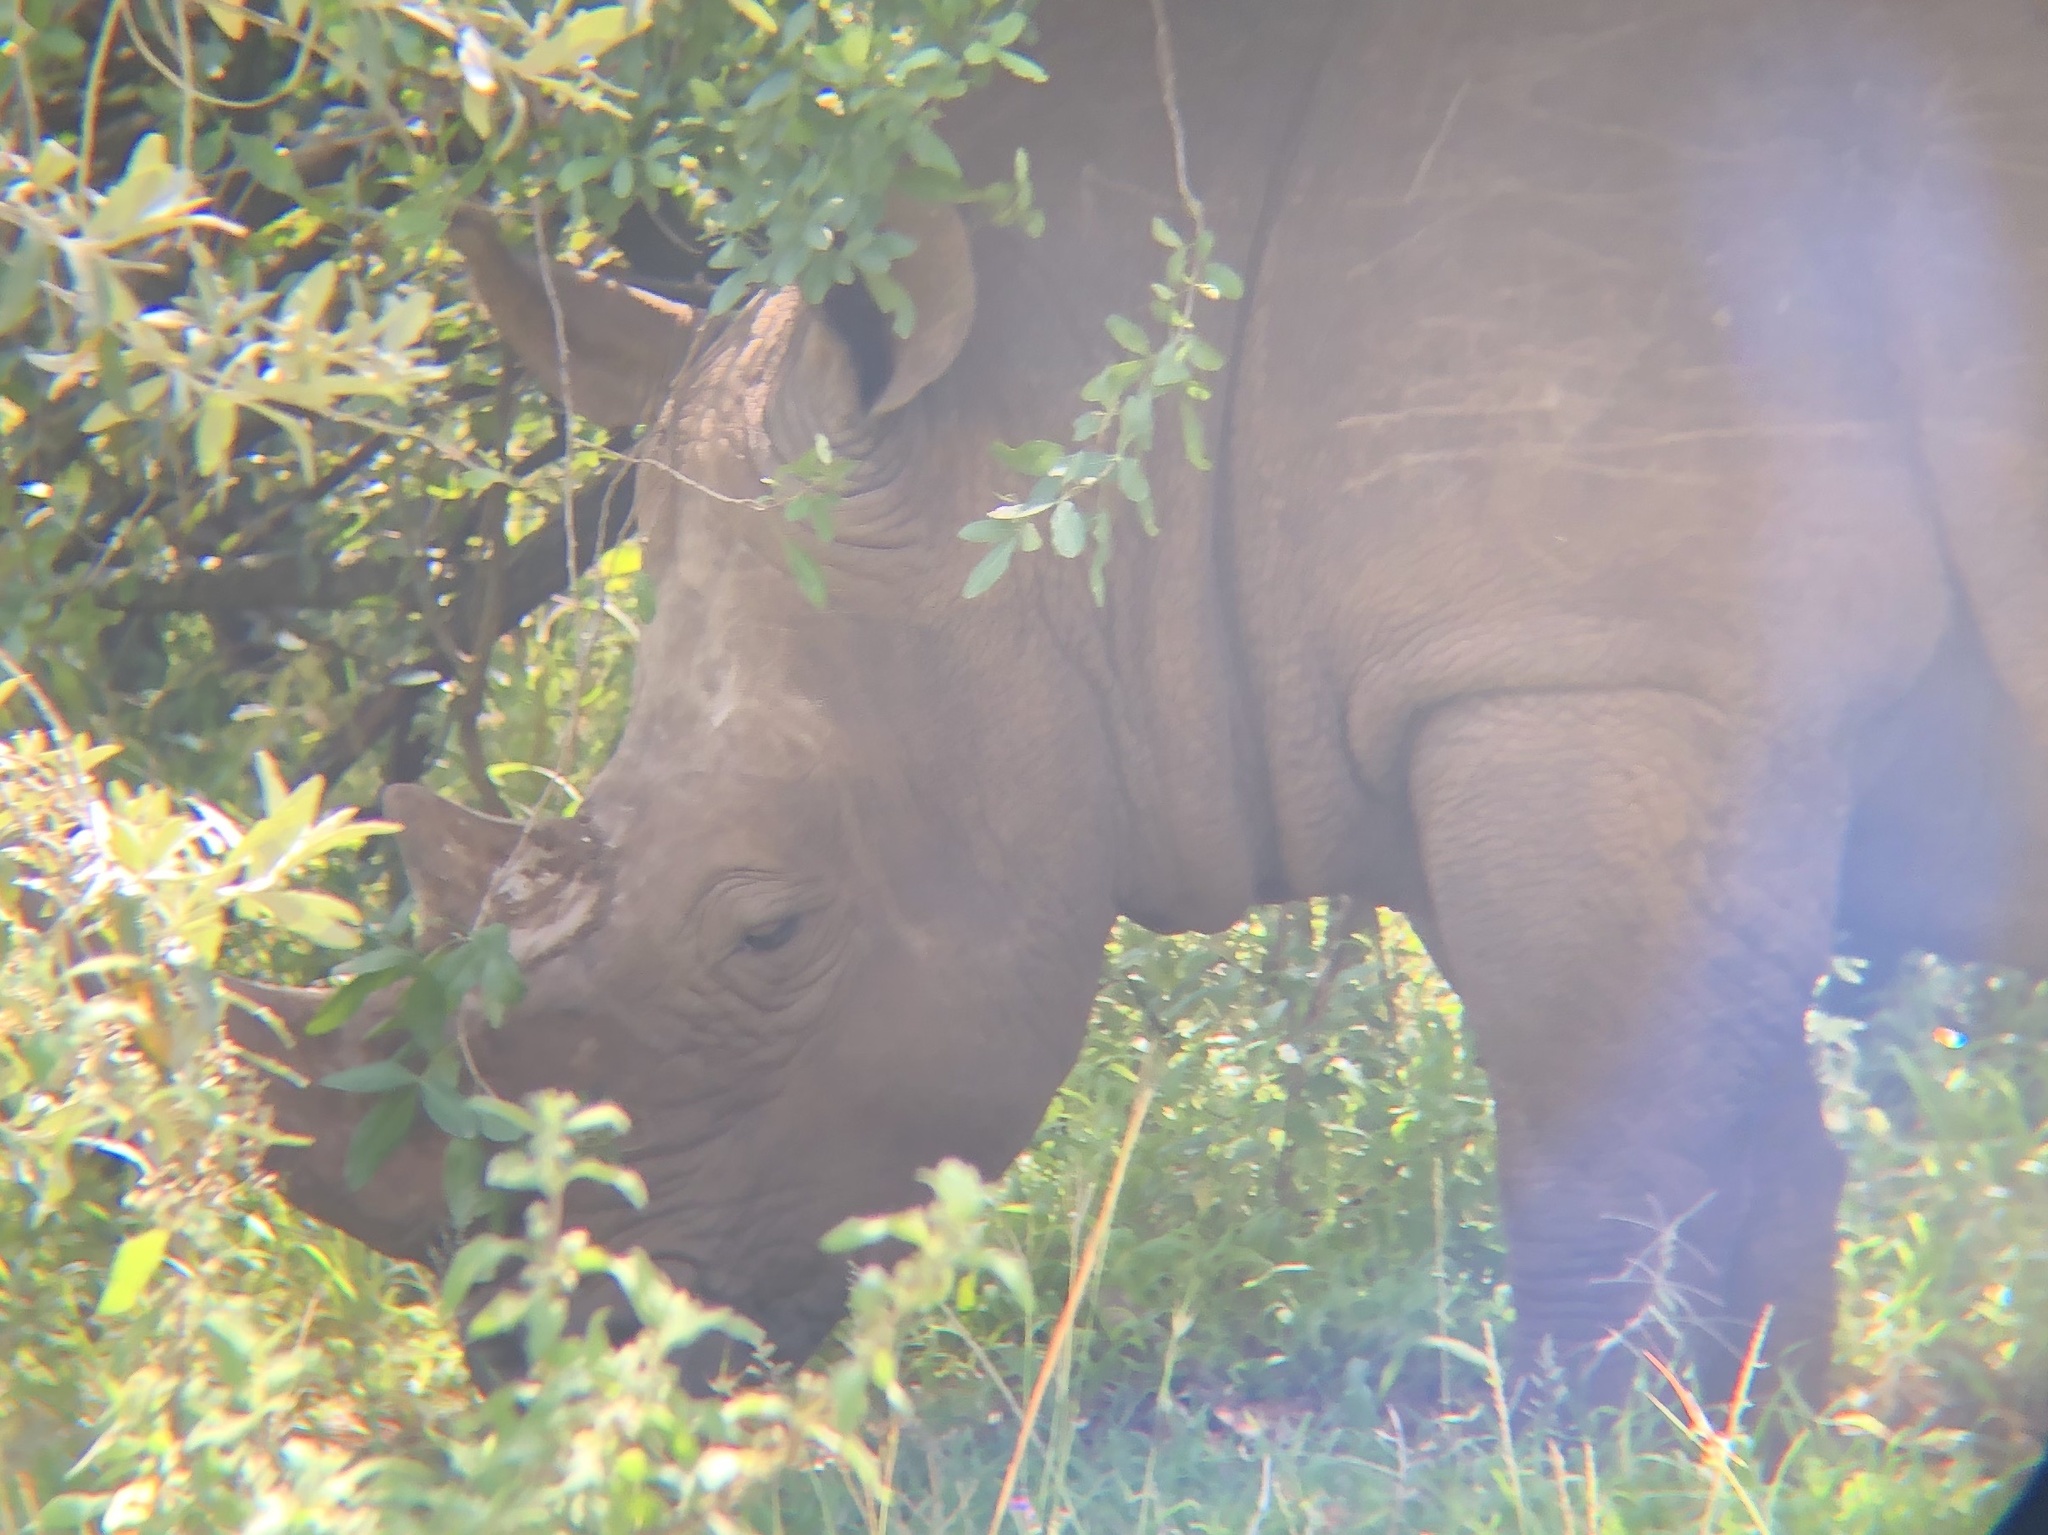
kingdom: Animalia
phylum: Chordata
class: Mammalia
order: Perissodactyla
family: Rhinocerotidae
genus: Ceratotherium
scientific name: Ceratotherium simum
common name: White rhinoceros
